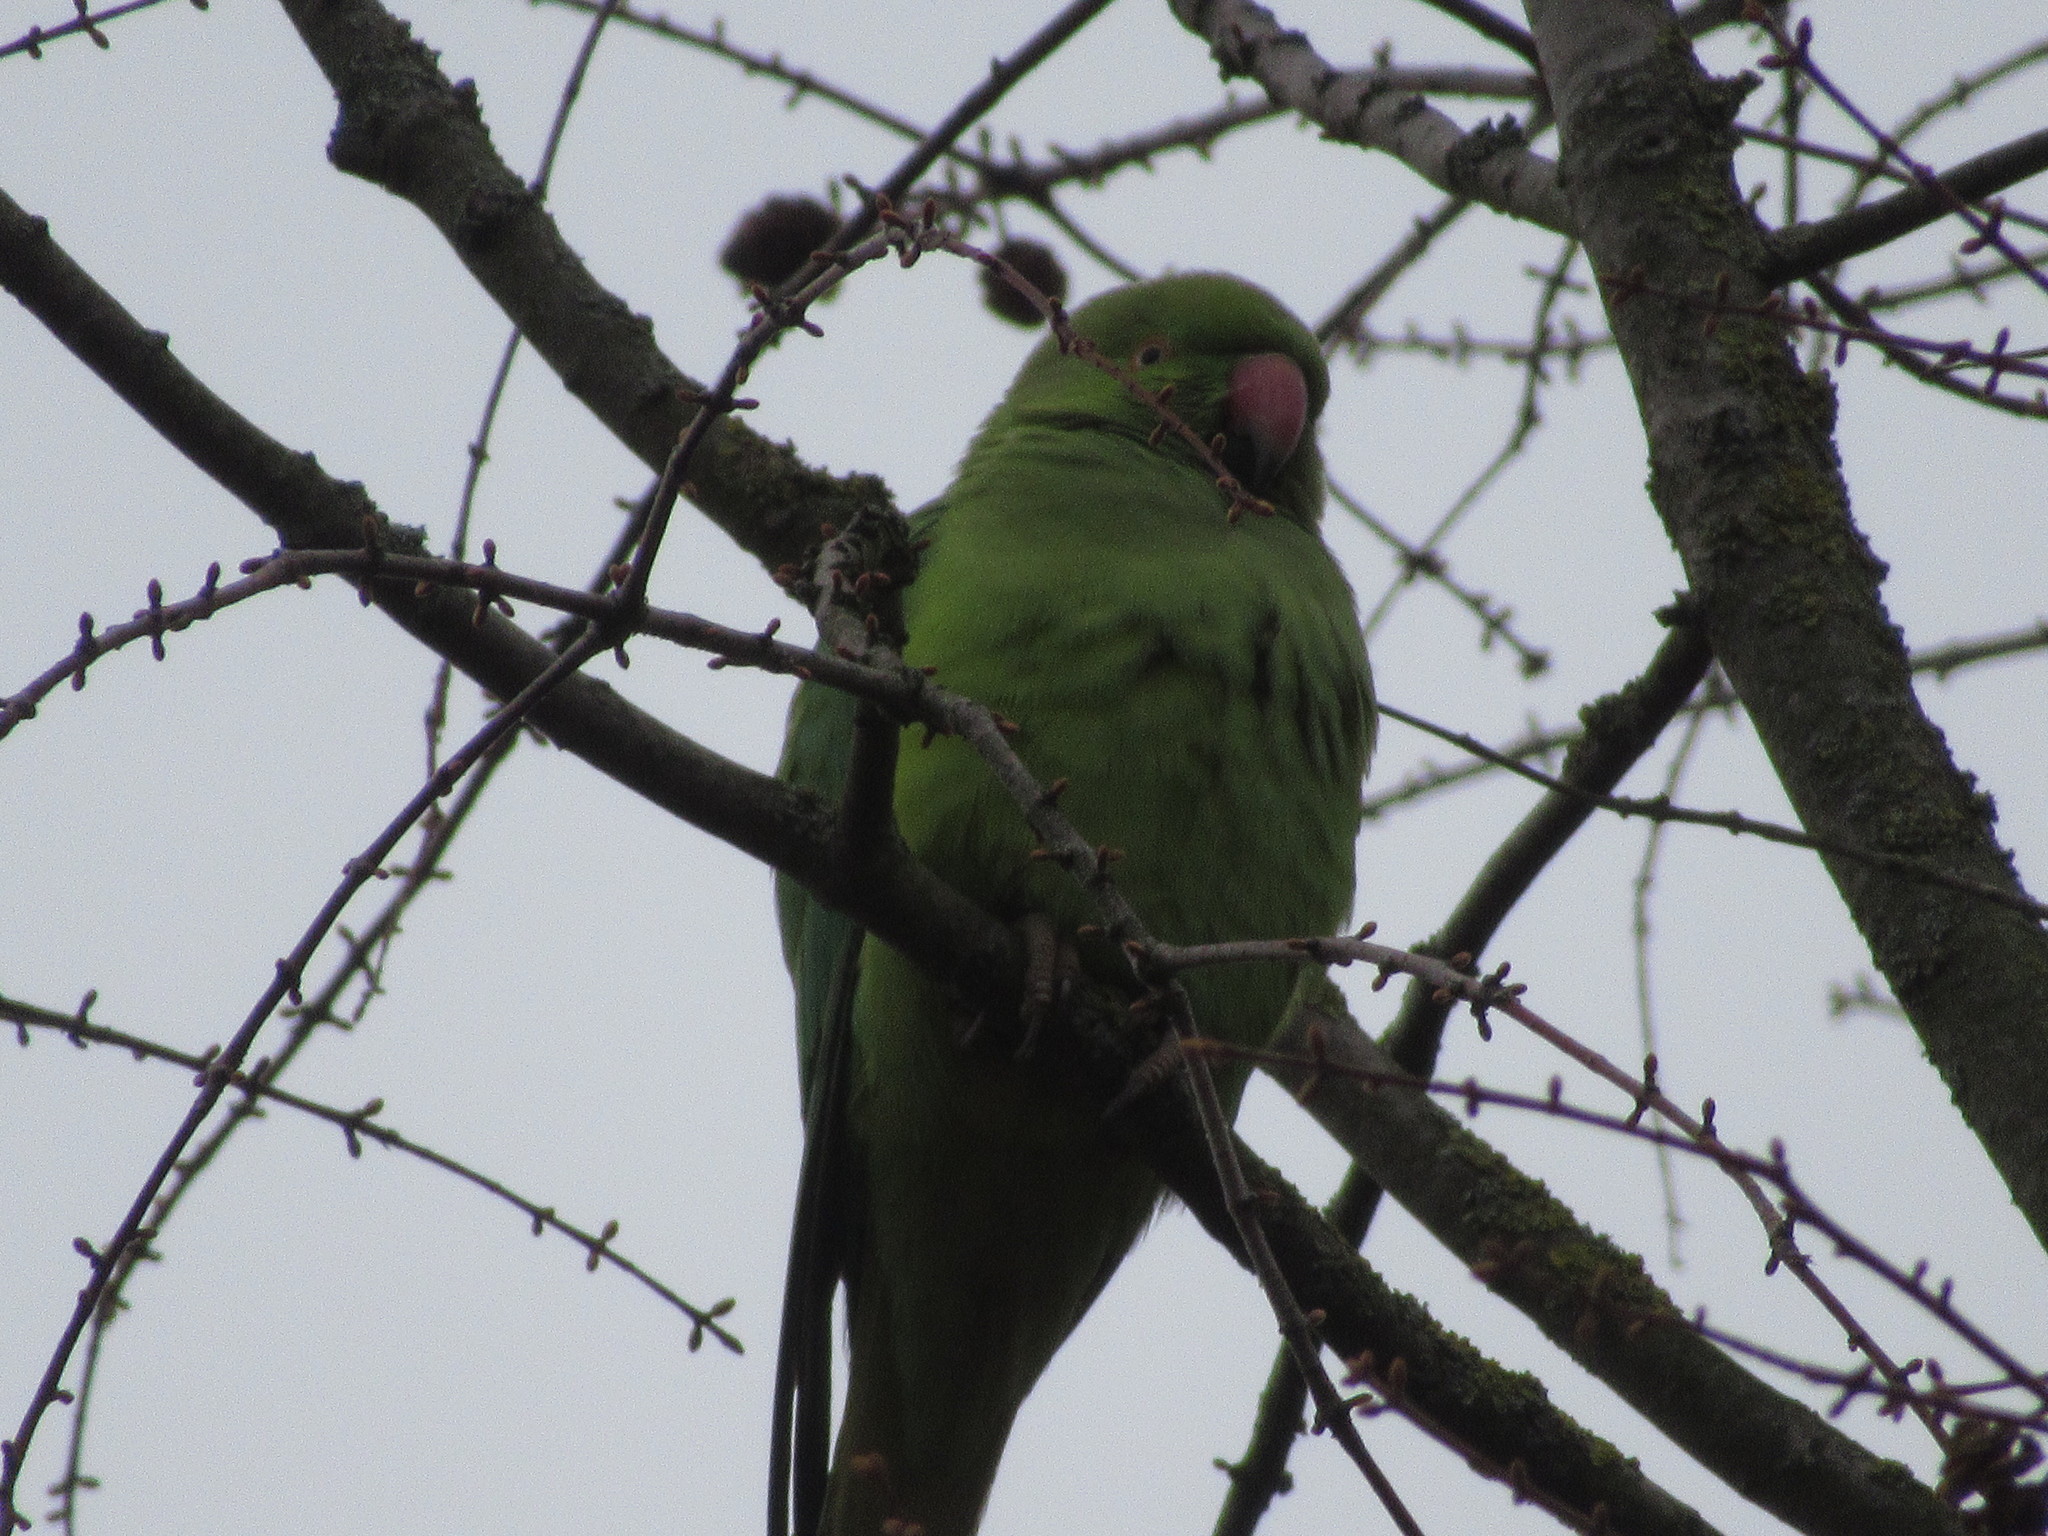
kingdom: Animalia
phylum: Chordata
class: Aves
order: Psittaciformes
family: Psittacidae
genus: Psittacula
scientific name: Psittacula krameri
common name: Rose-ringed parakeet
